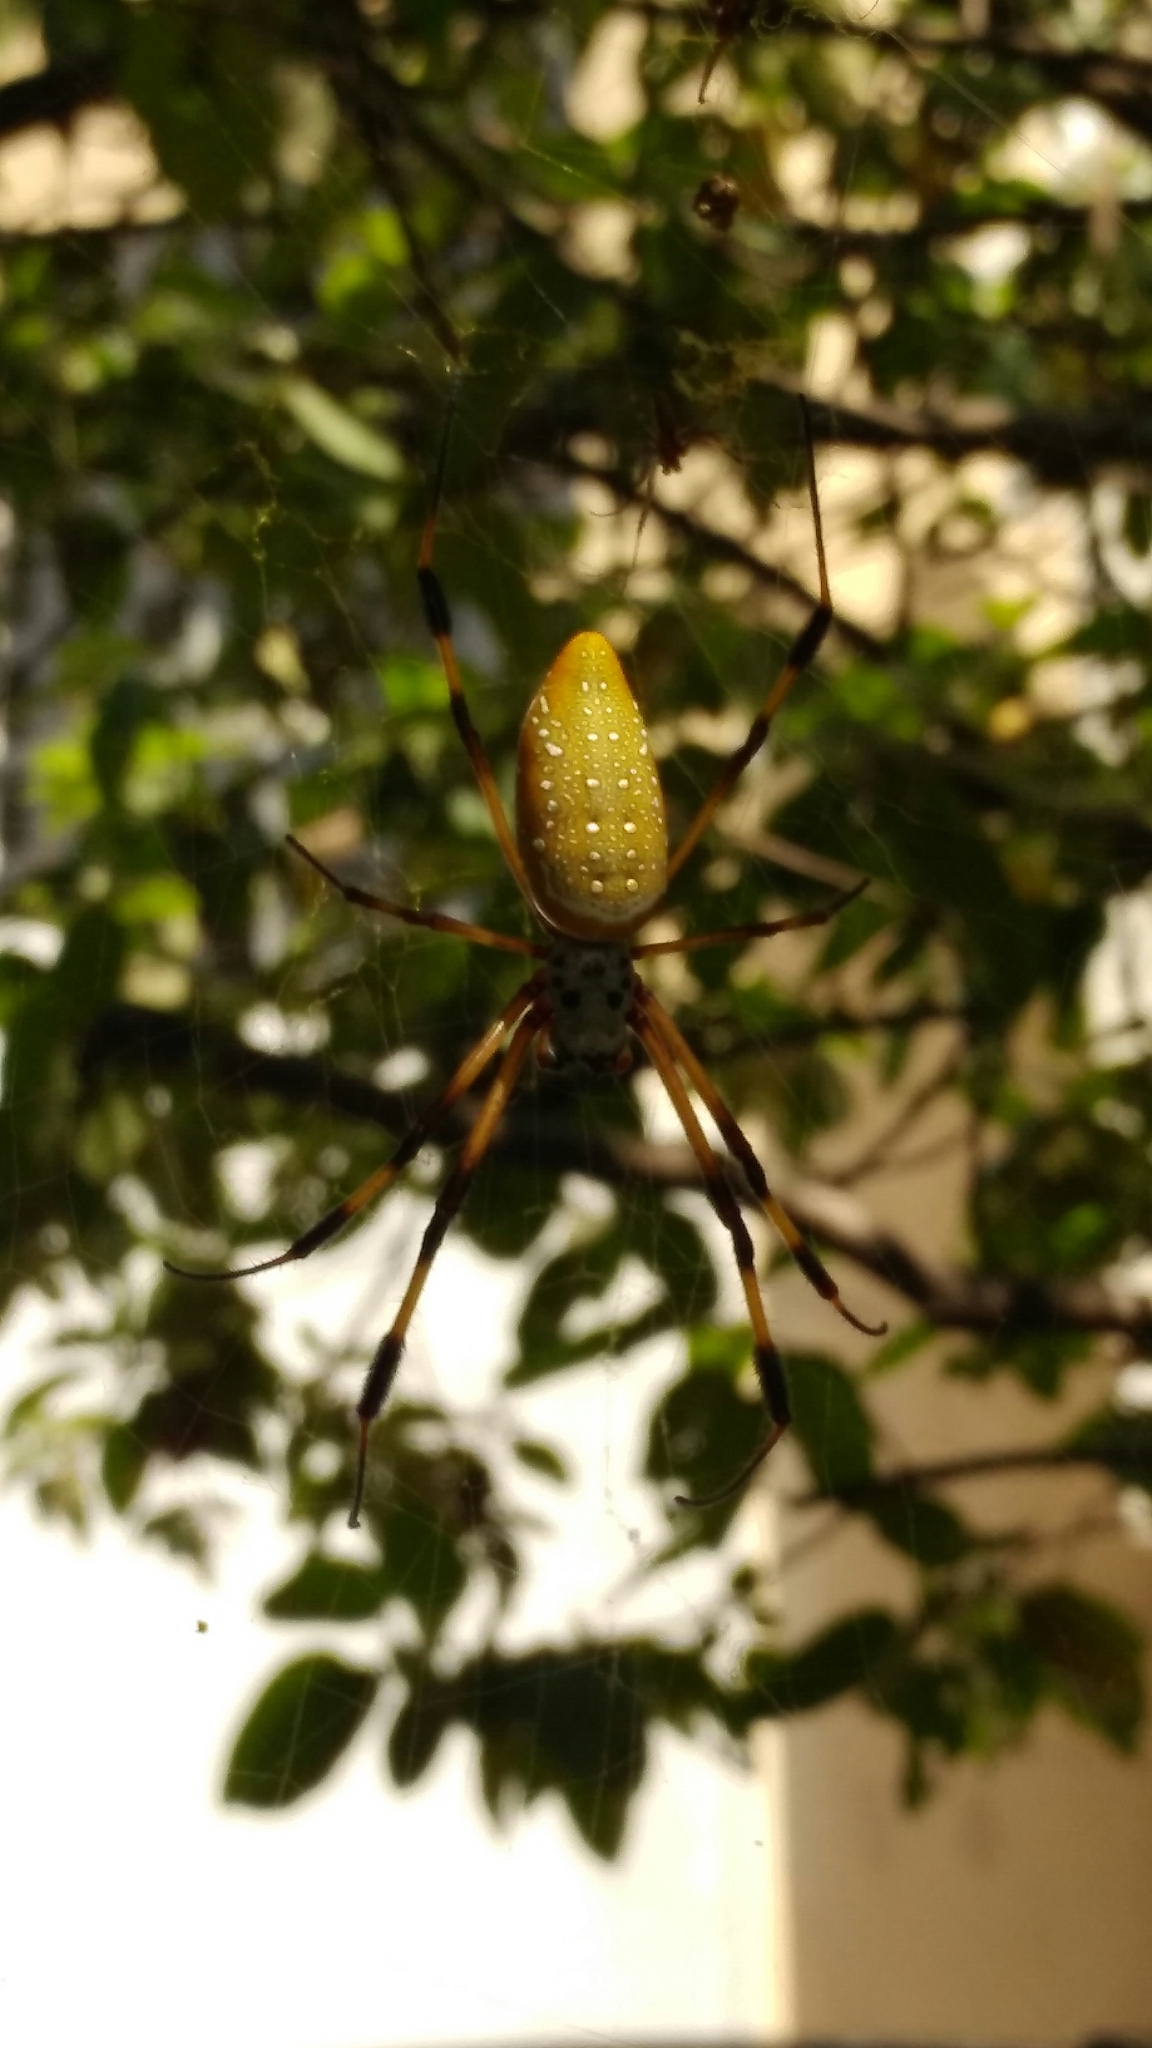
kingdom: Animalia
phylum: Arthropoda
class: Arachnida
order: Araneae
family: Araneidae
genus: Trichonephila
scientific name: Trichonephila clavipes
